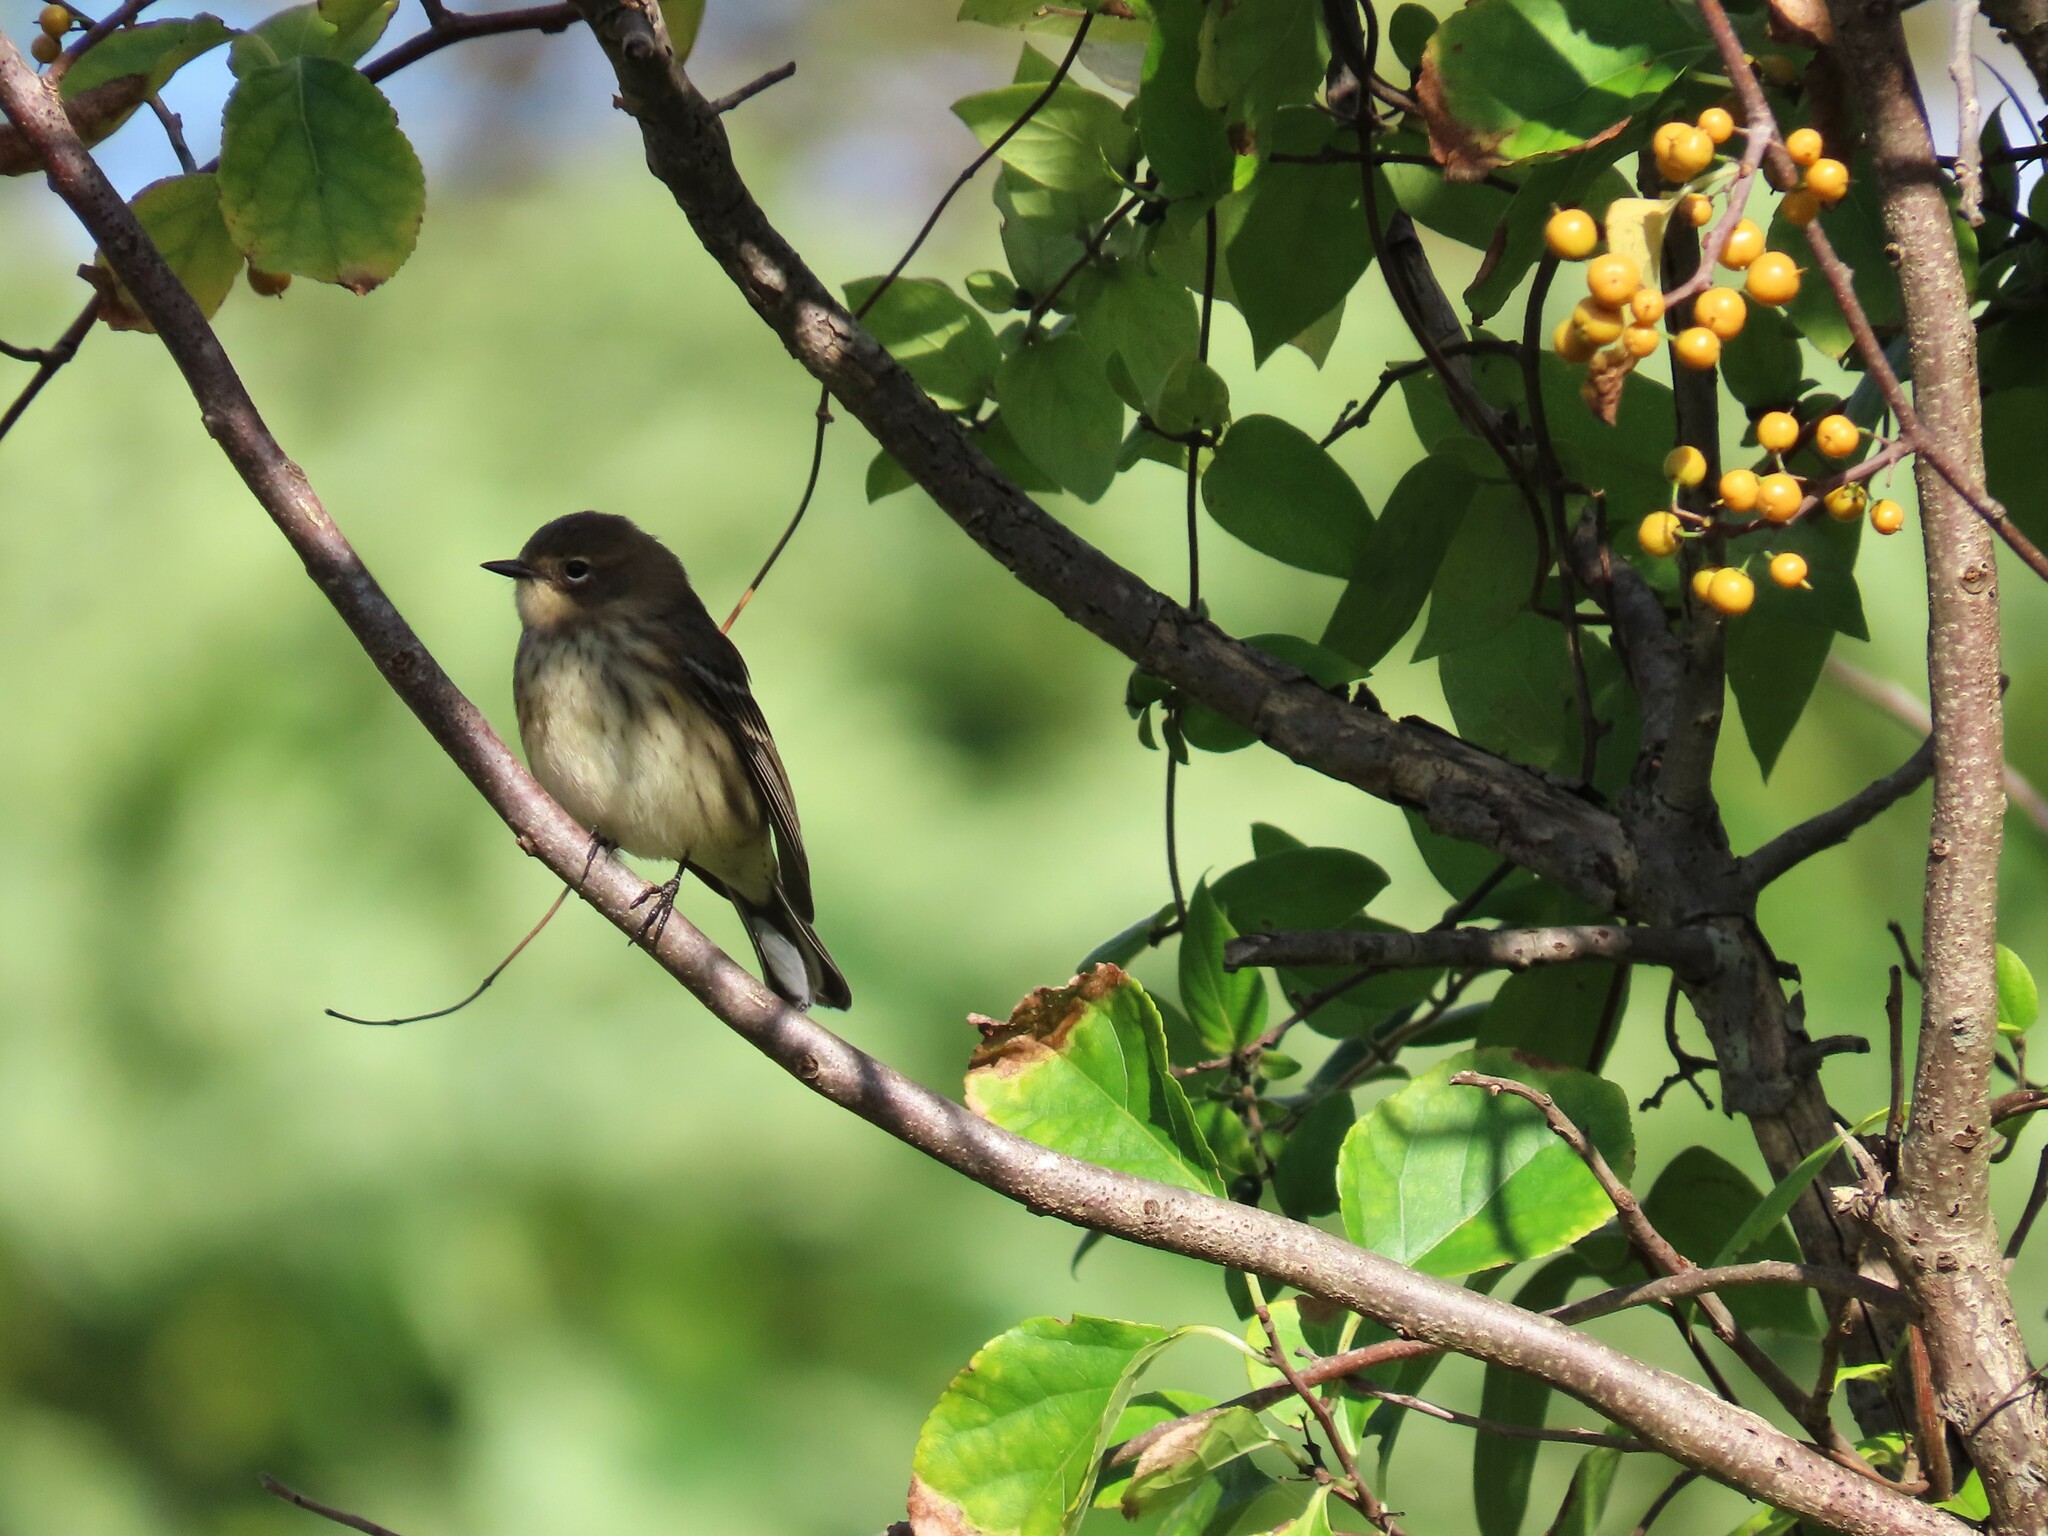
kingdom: Animalia
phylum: Chordata
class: Aves
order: Passeriformes
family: Parulidae
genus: Setophaga
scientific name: Setophaga coronata
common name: Myrtle warbler
